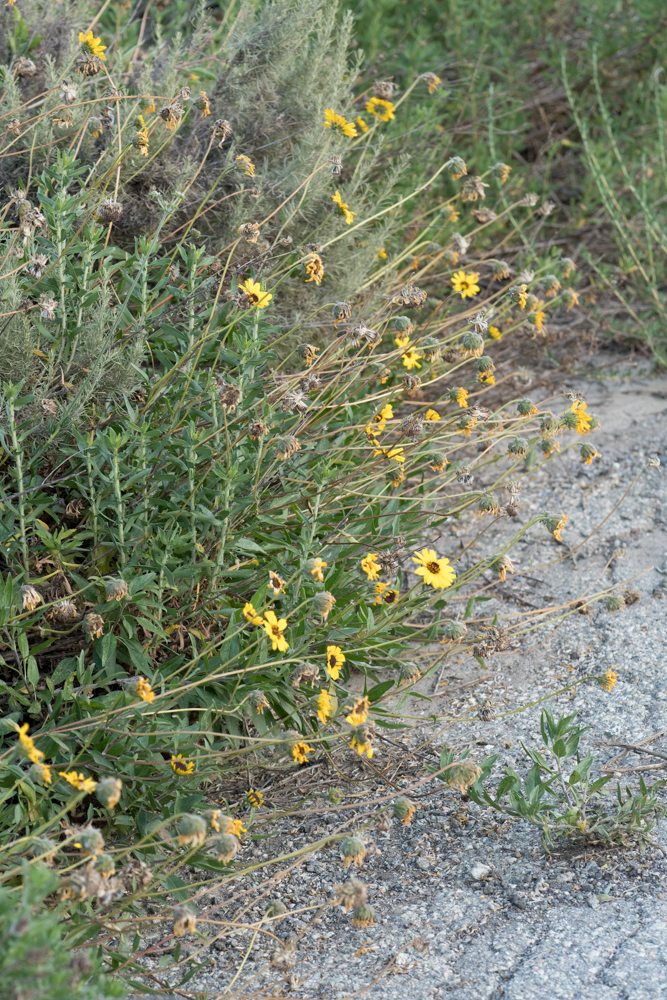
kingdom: Plantae
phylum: Tracheophyta
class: Magnoliopsida
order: Asterales
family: Asteraceae
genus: Encelia
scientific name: Encelia californica
